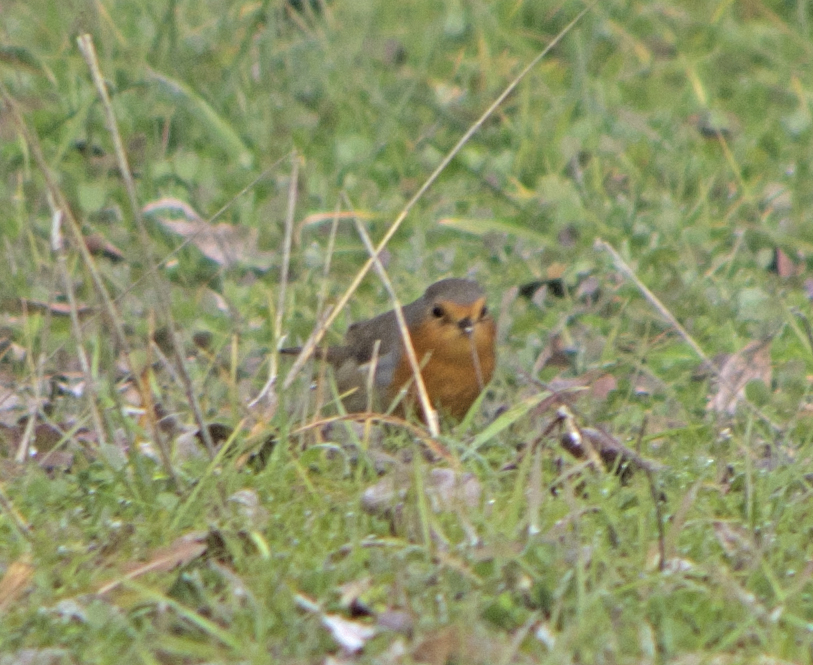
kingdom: Animalia
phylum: Chordata
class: Aves
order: Passeriformes
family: Muscicapidae
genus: Erithacus
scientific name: Erithacus rubecula
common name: European robin
